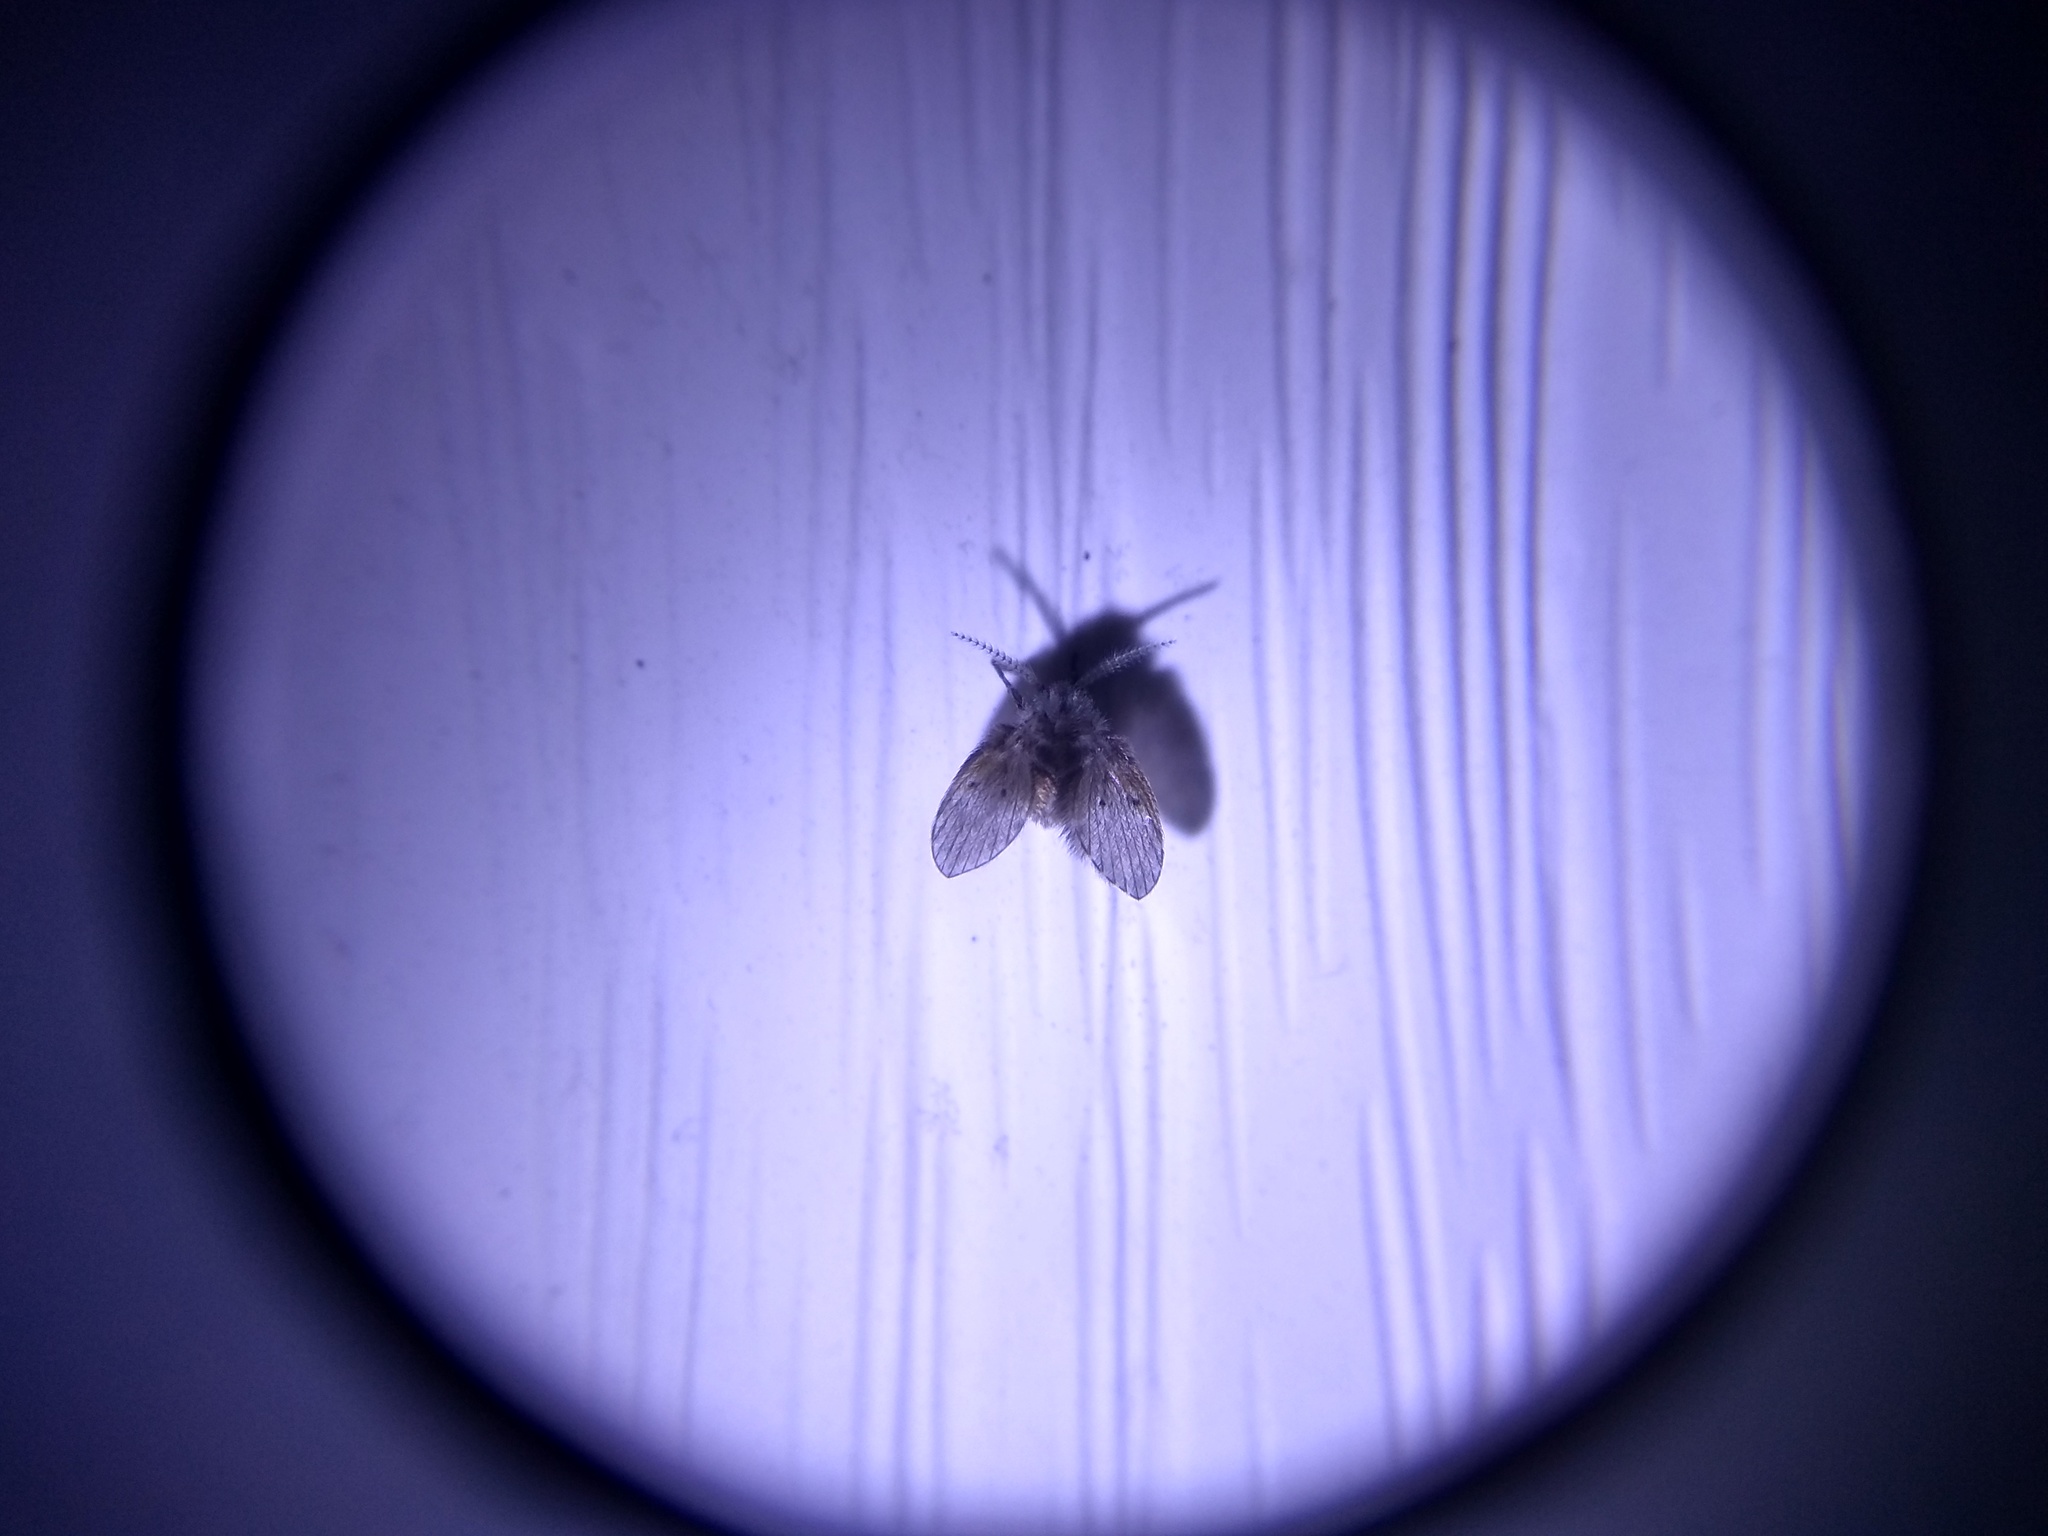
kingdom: Animalia
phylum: Arthropoda
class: Insecta
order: Diptera
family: Psychodidae
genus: Clogmia
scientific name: Clogmia albipunctatus
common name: White-spotted moth fly
